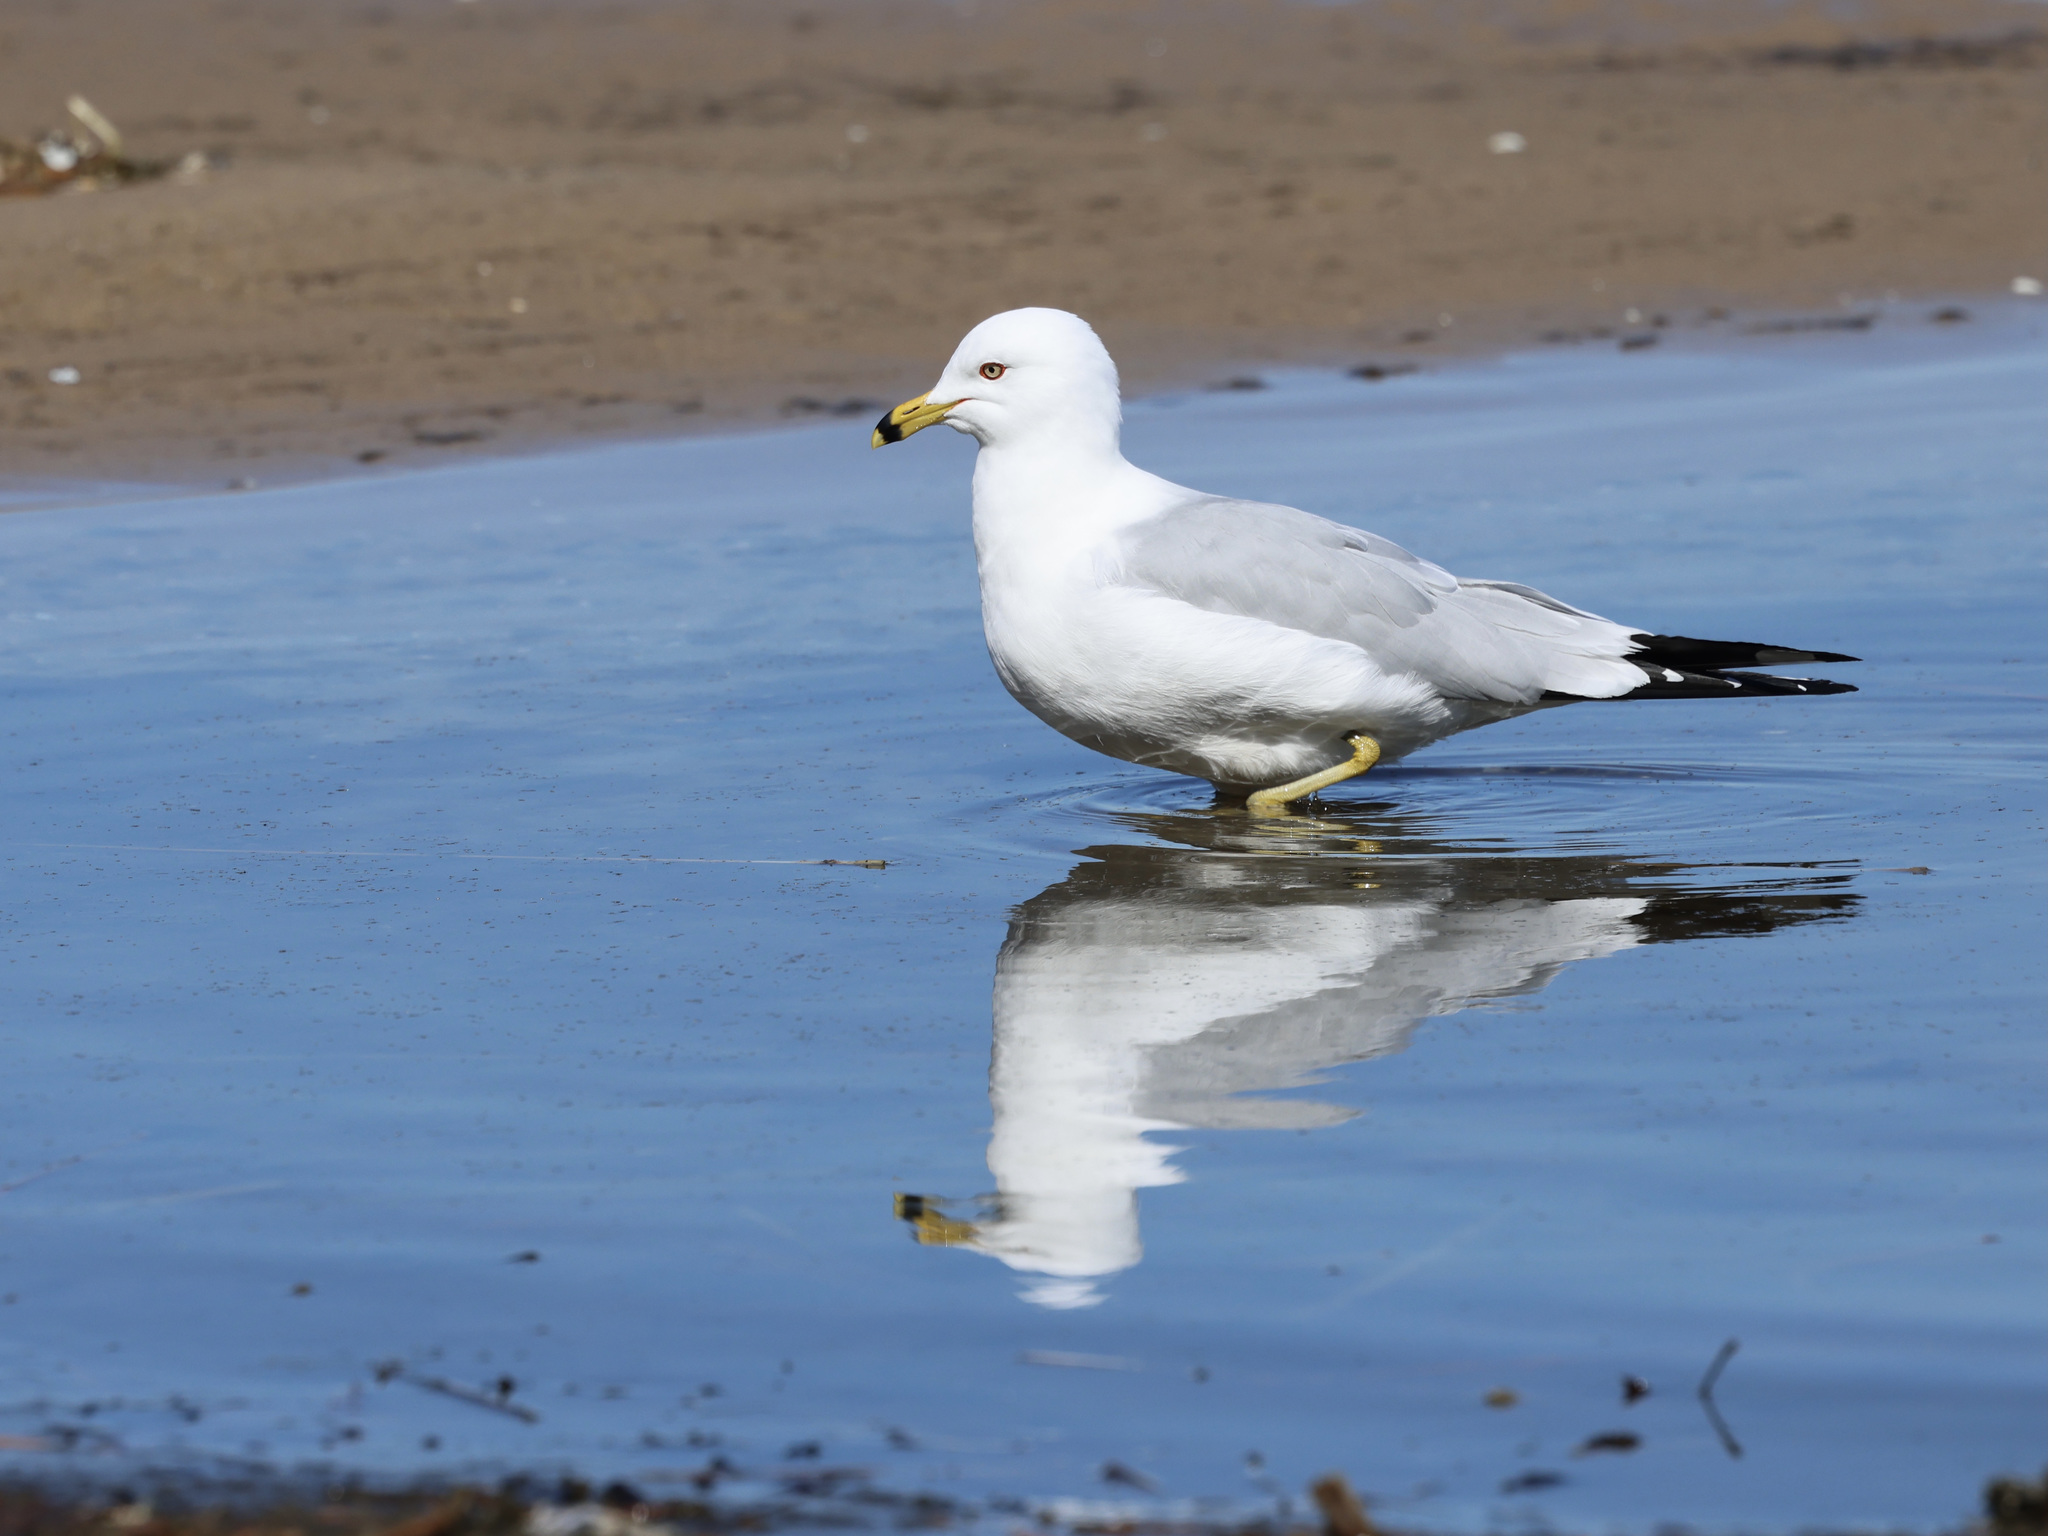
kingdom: Animalia
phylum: Chordata
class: Aves
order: Charadriiformes
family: Laridae
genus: Larus
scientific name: Larus delawarensis
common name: Ring-billed gull
